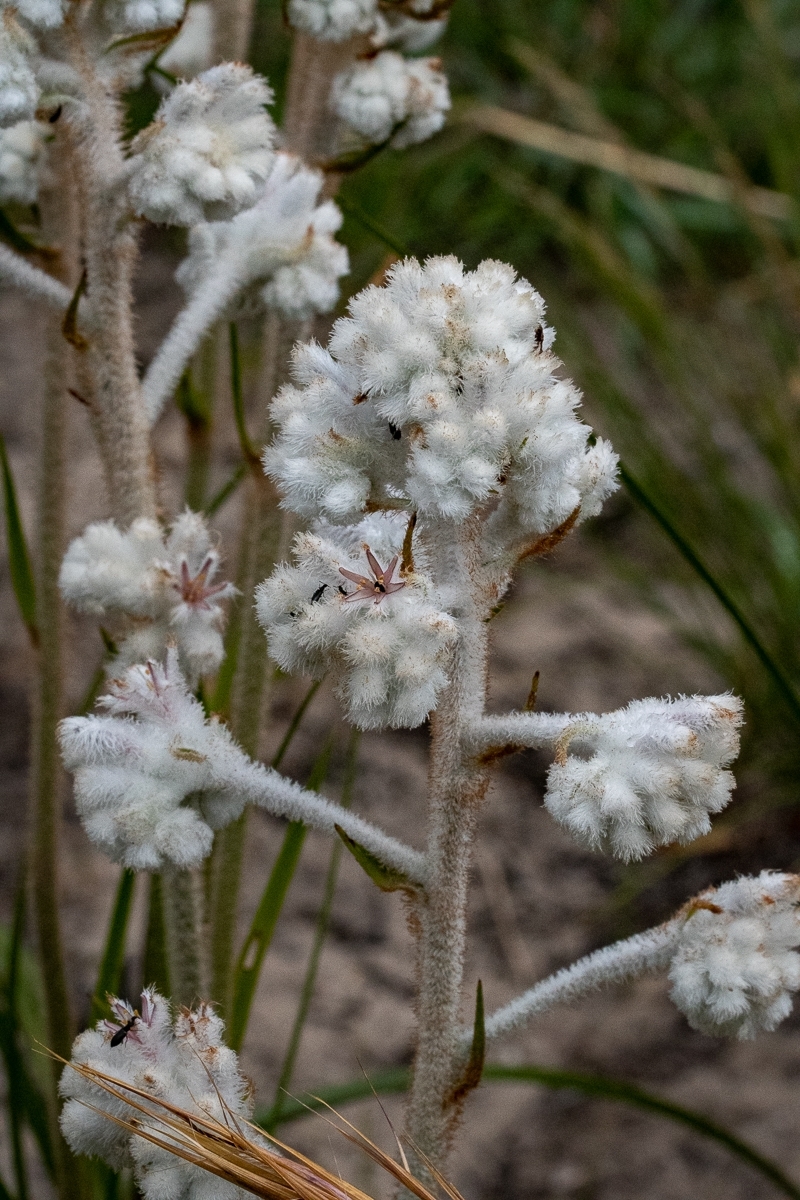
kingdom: Plantae
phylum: Tracheophyta
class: Liliopsida
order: Asparagales
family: Lanariaceae
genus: Lanaria
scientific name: Lanaria lanata
